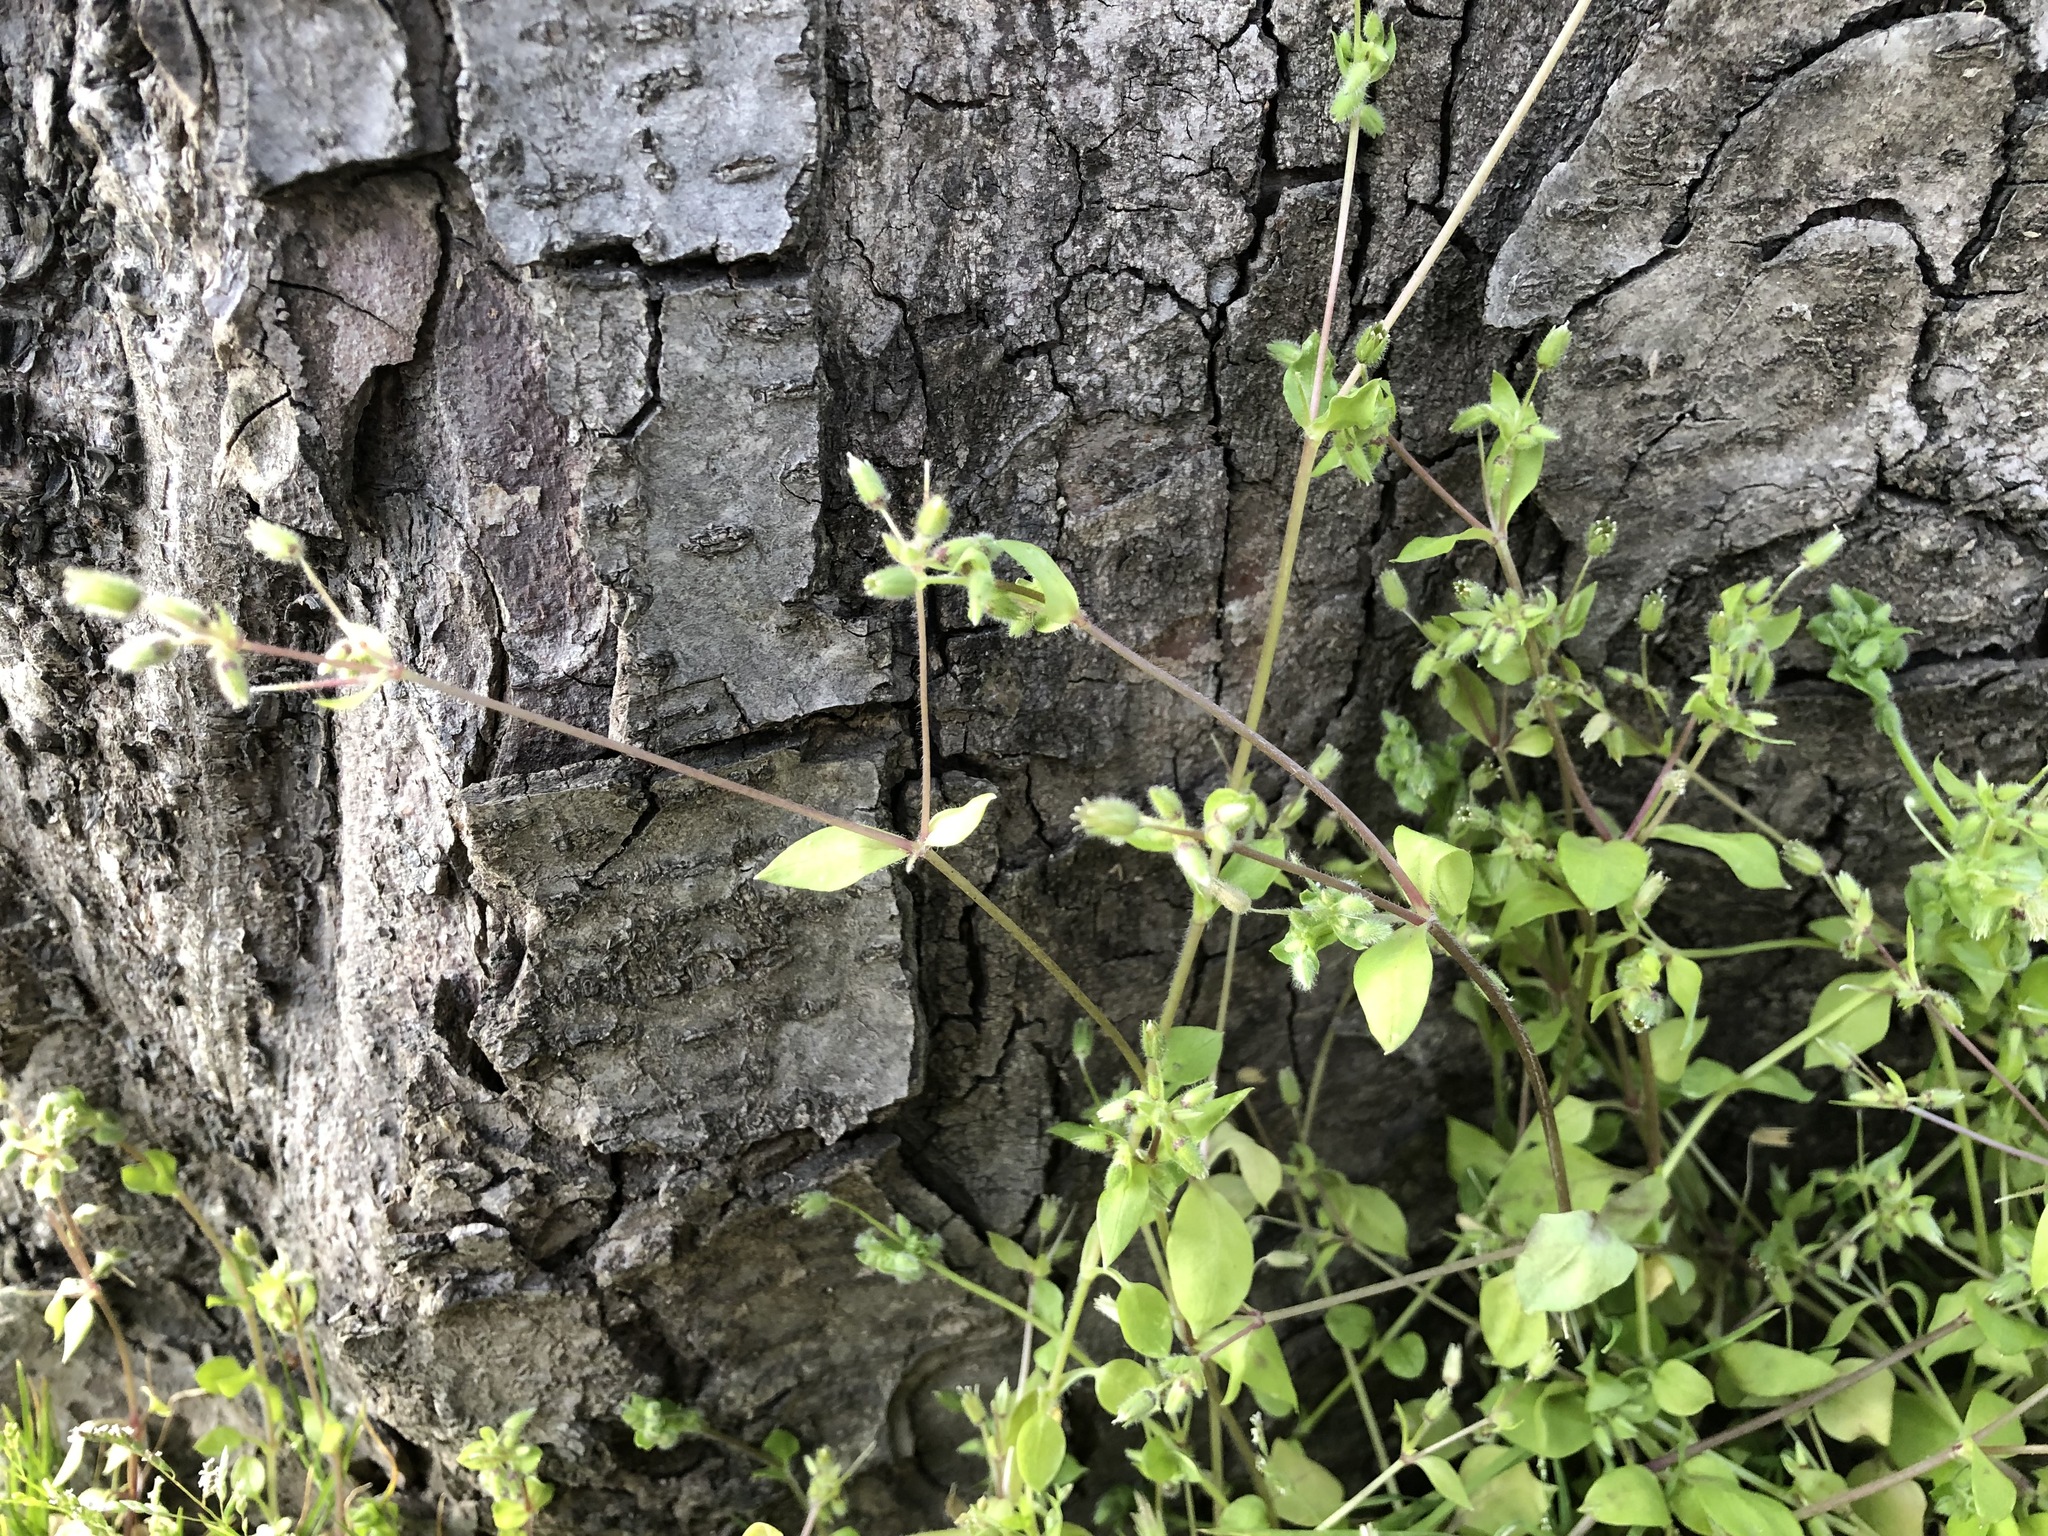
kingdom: Plantae
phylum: Tracheophyta
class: Magnoliopsida
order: Caryophyllales
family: Caryophyllaceae
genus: Stellaria
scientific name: Stellaria media
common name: Common chickweed
